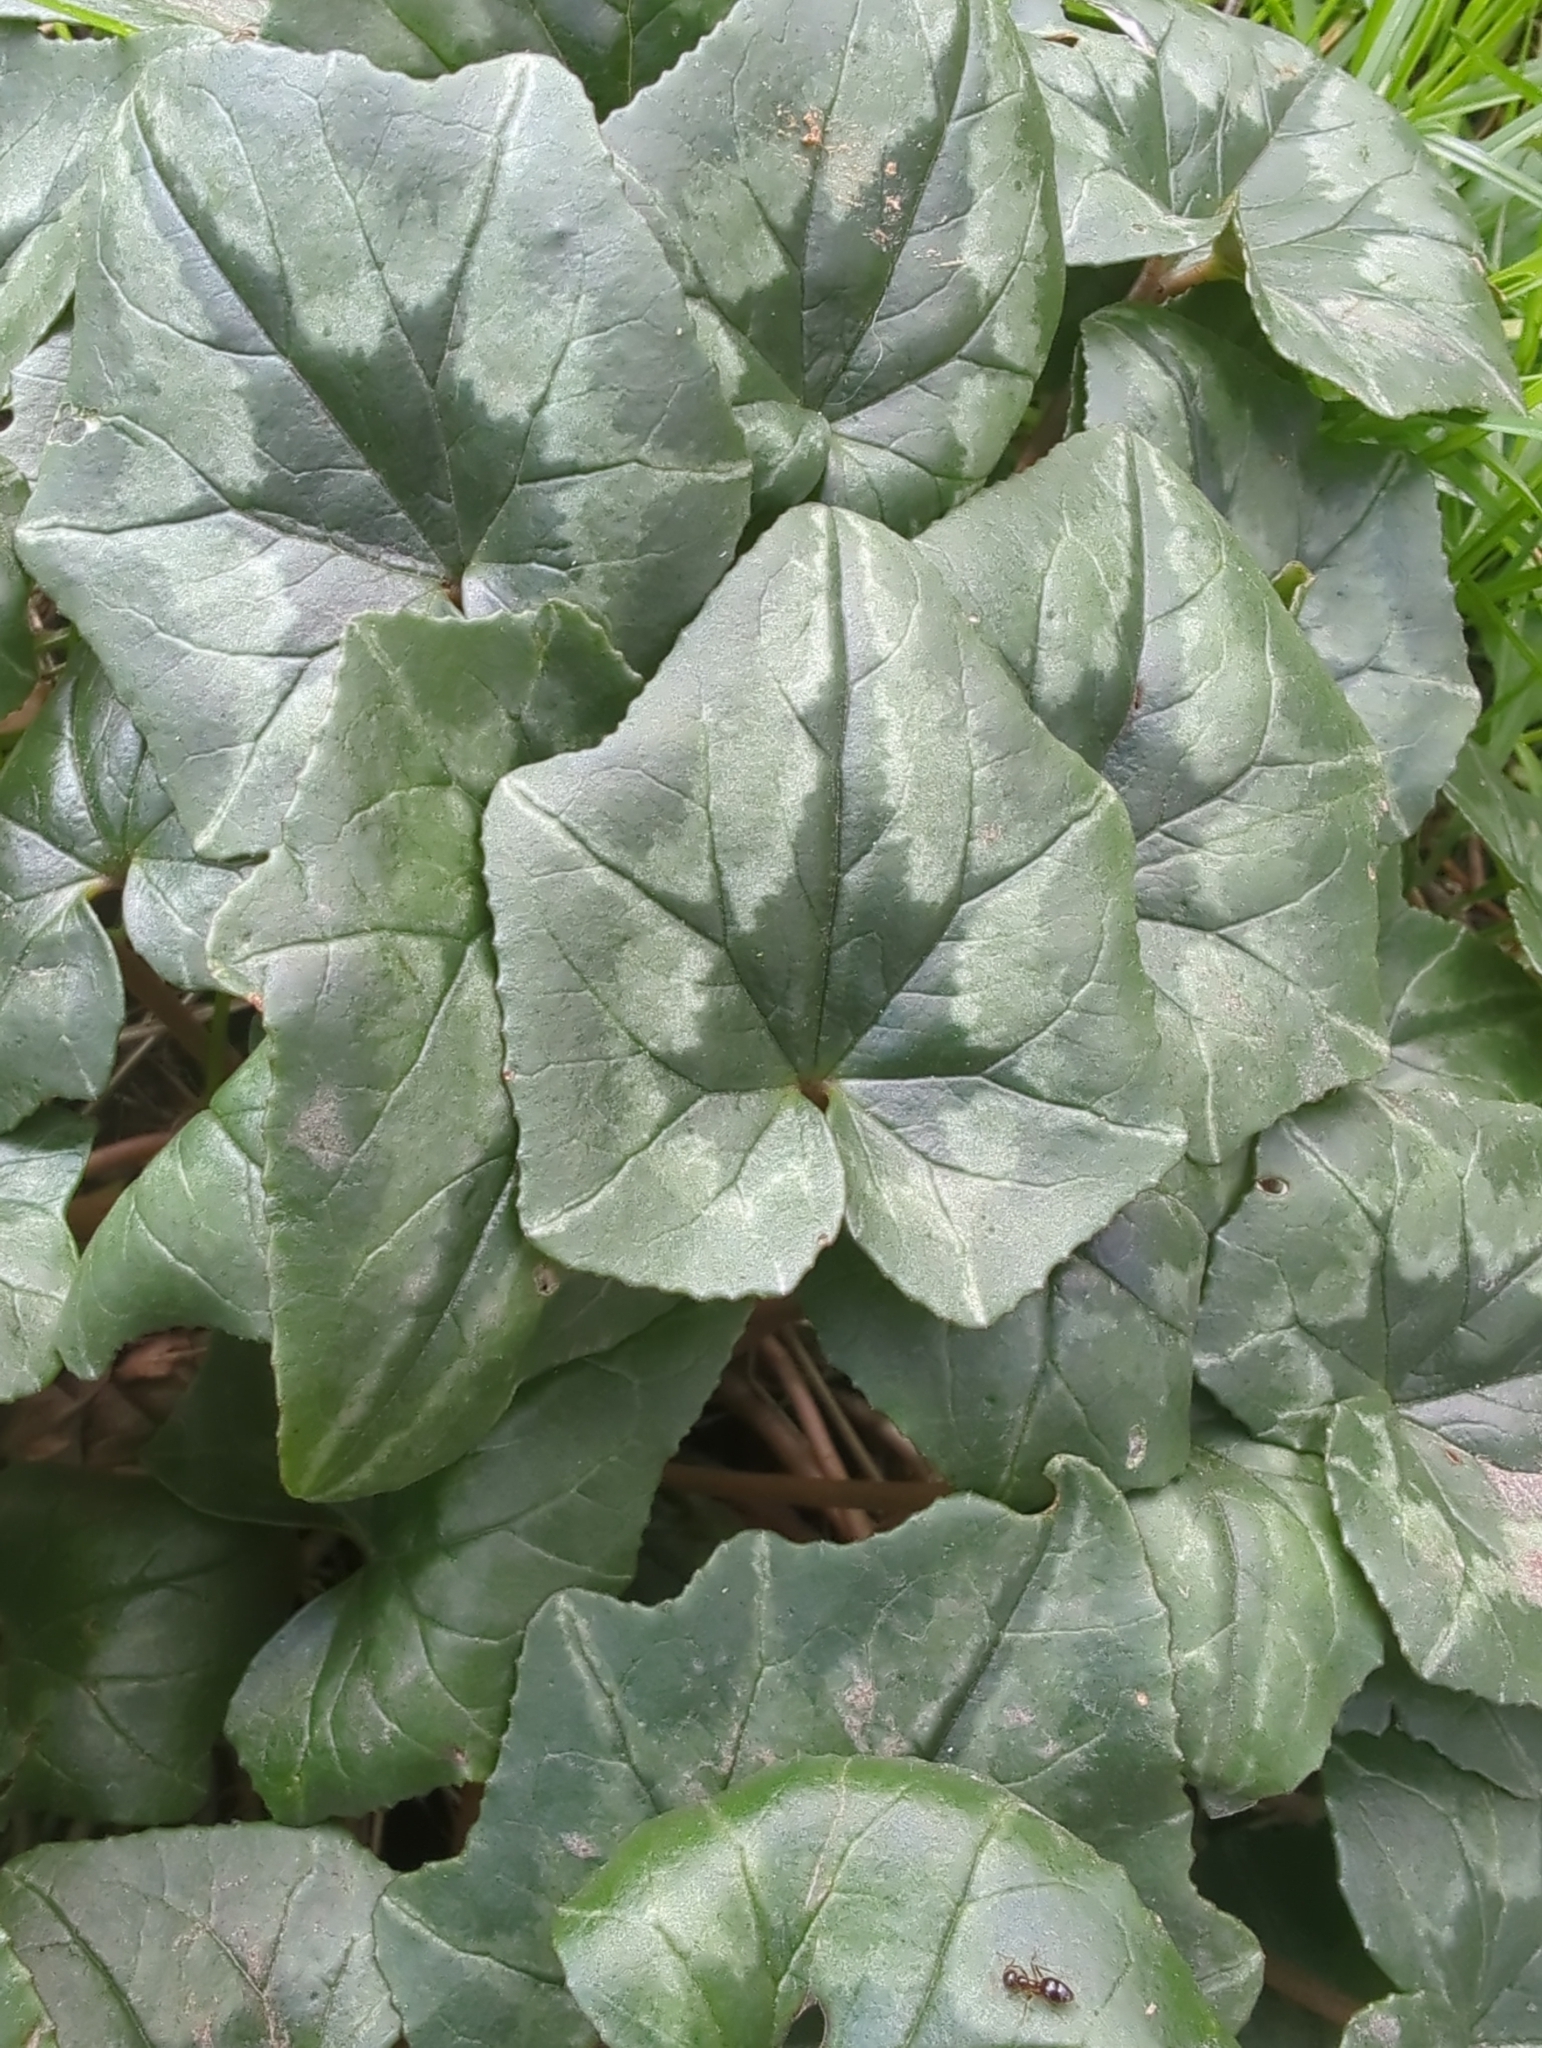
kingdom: Plantae
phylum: Tracheophyta
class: Magnoliopsida
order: Ericales
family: Primulaceae
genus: Cyclamen
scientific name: Cyclamen hederifolium
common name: Sowbread
